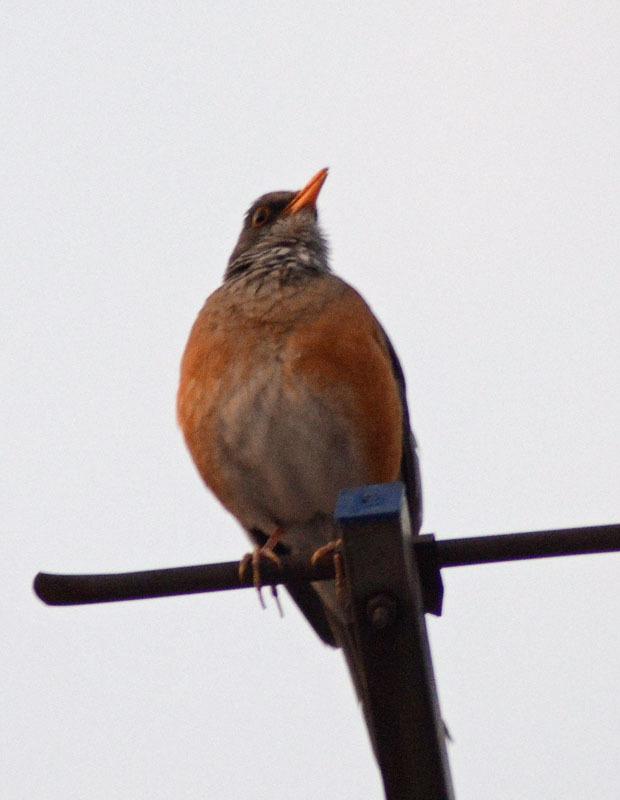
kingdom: Animalia
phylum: Chordata
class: Aves
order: Passeriformes
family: Turdidae
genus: Turdus
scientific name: Turdus rufopalliatus
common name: Rufous-backed robin
